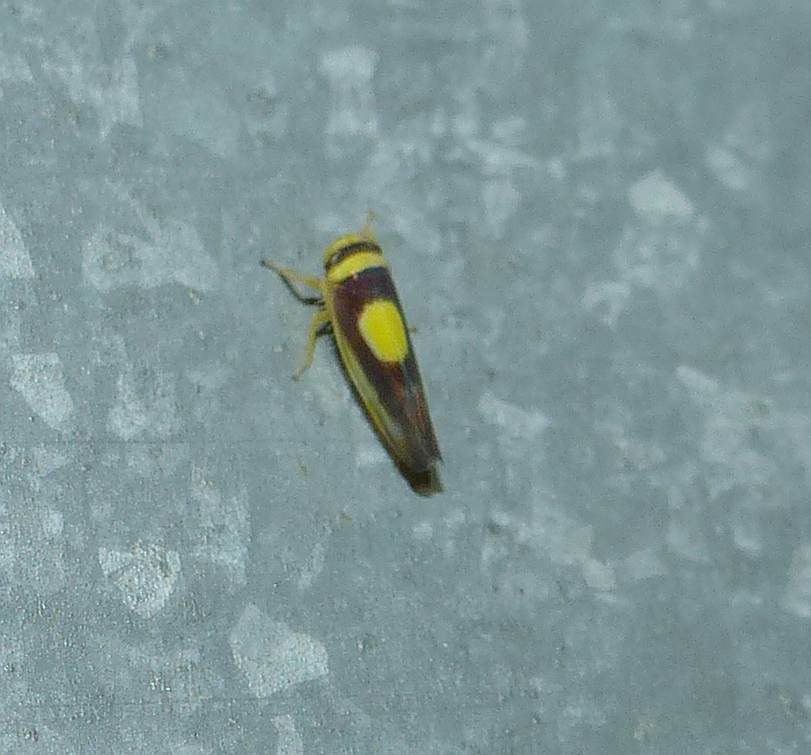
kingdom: Animalia
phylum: Arthropoda
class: Insecta
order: Hemiptera
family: Cicadellidae
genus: Colladonus
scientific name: Colladonus clitellarius
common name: The saddleback leafhopper
